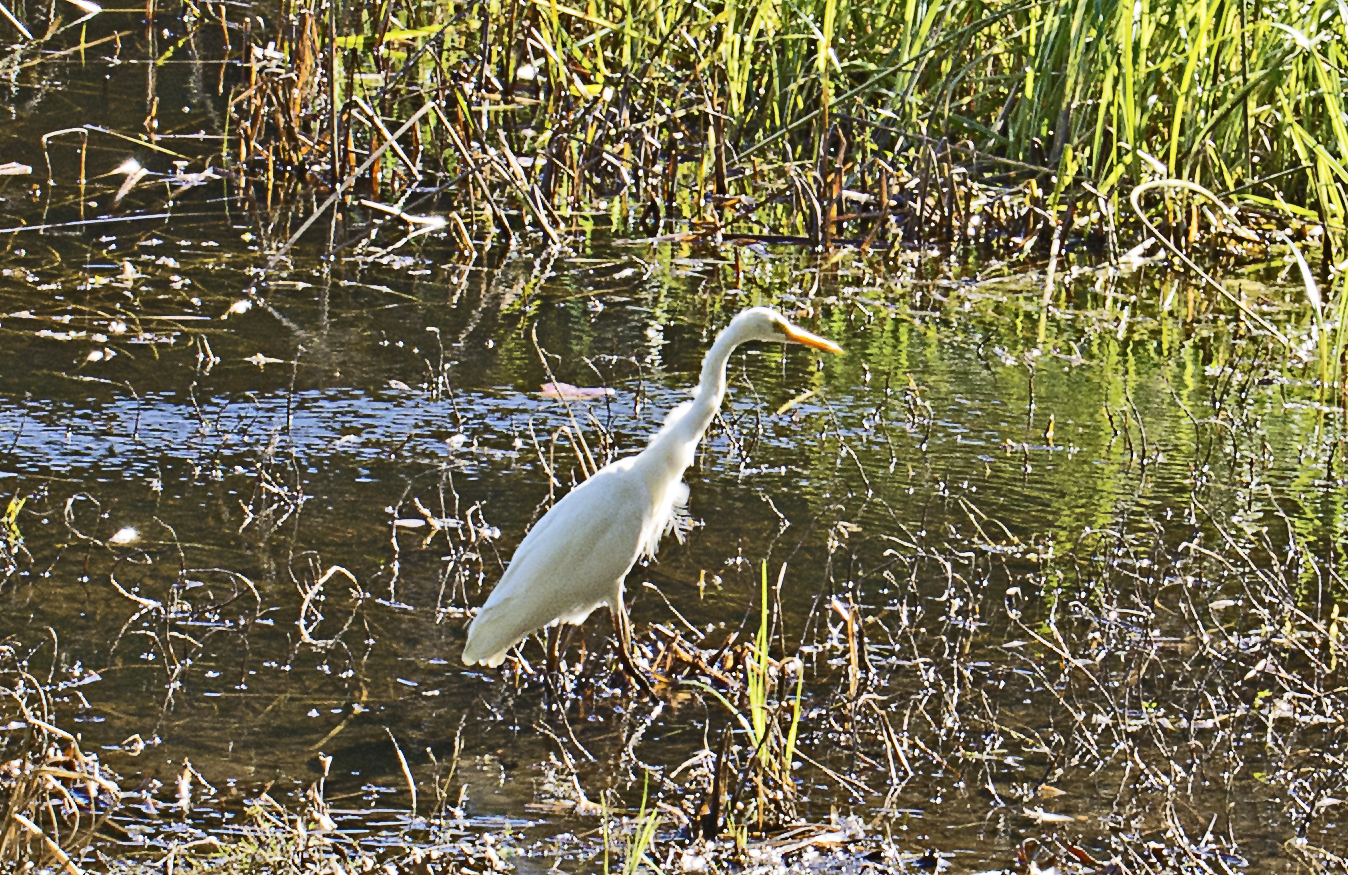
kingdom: Animalia
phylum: Chordata
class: Aves
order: Pelecaniformes
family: Ardeidae
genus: Egretta
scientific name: Egretta intermedia
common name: Intermediate egret
